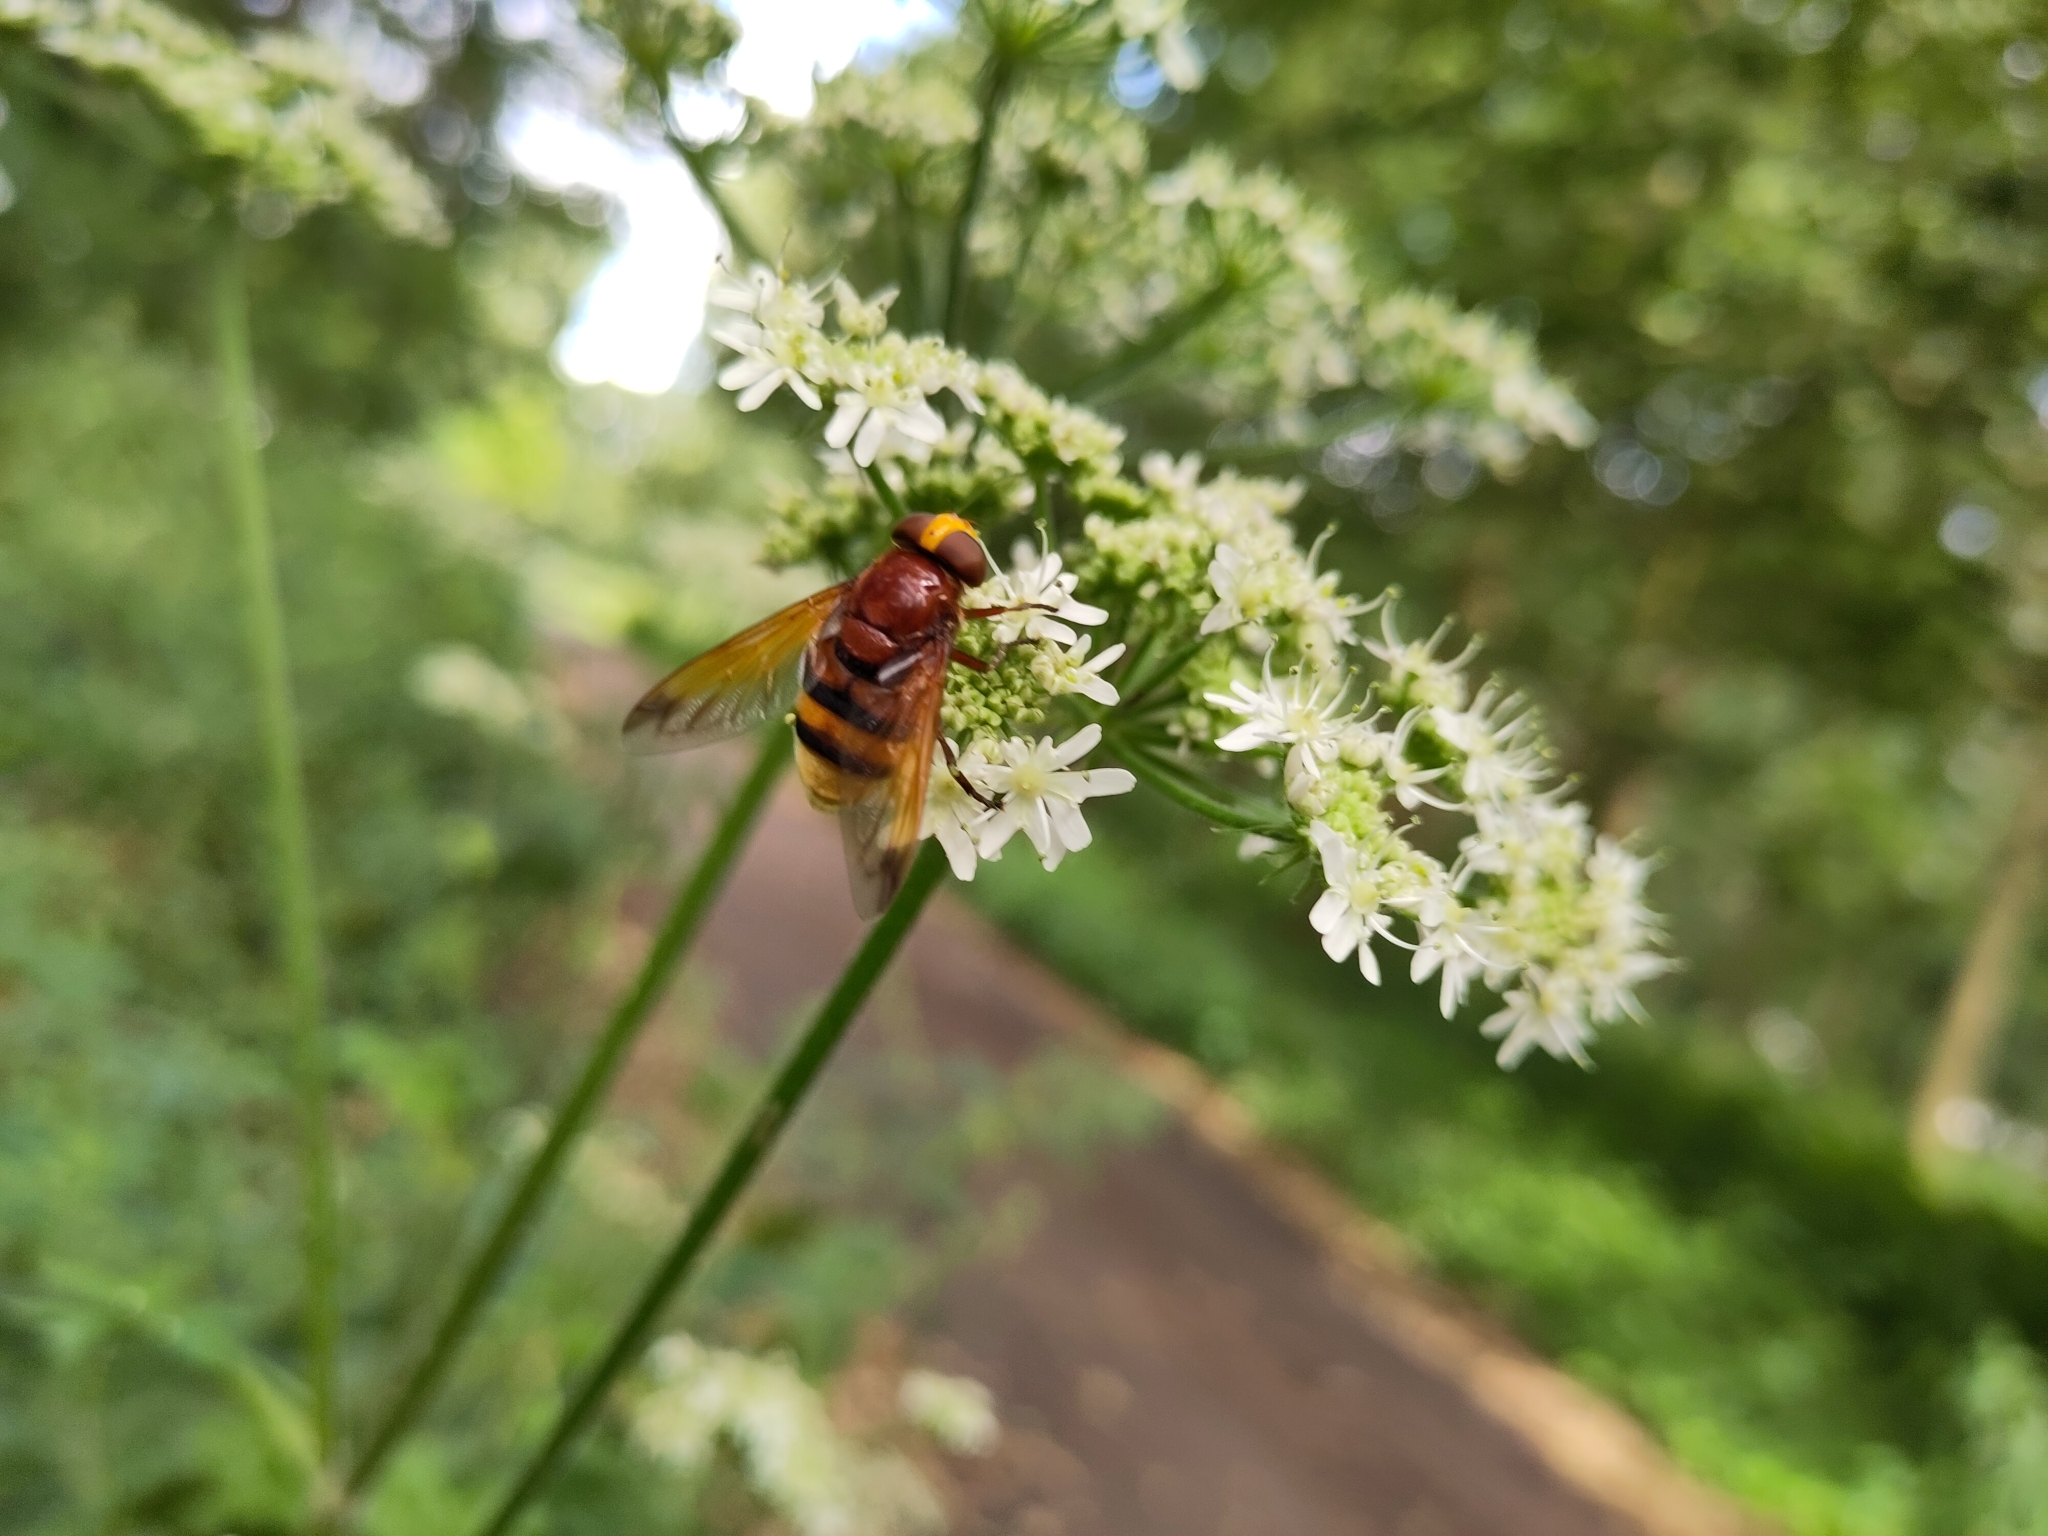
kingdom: Animalia
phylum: Arthropoda
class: Insecta
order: Diptera
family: Syrphidae
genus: Volucella
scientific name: Volucella zonaria
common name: Hornet hoverfly
